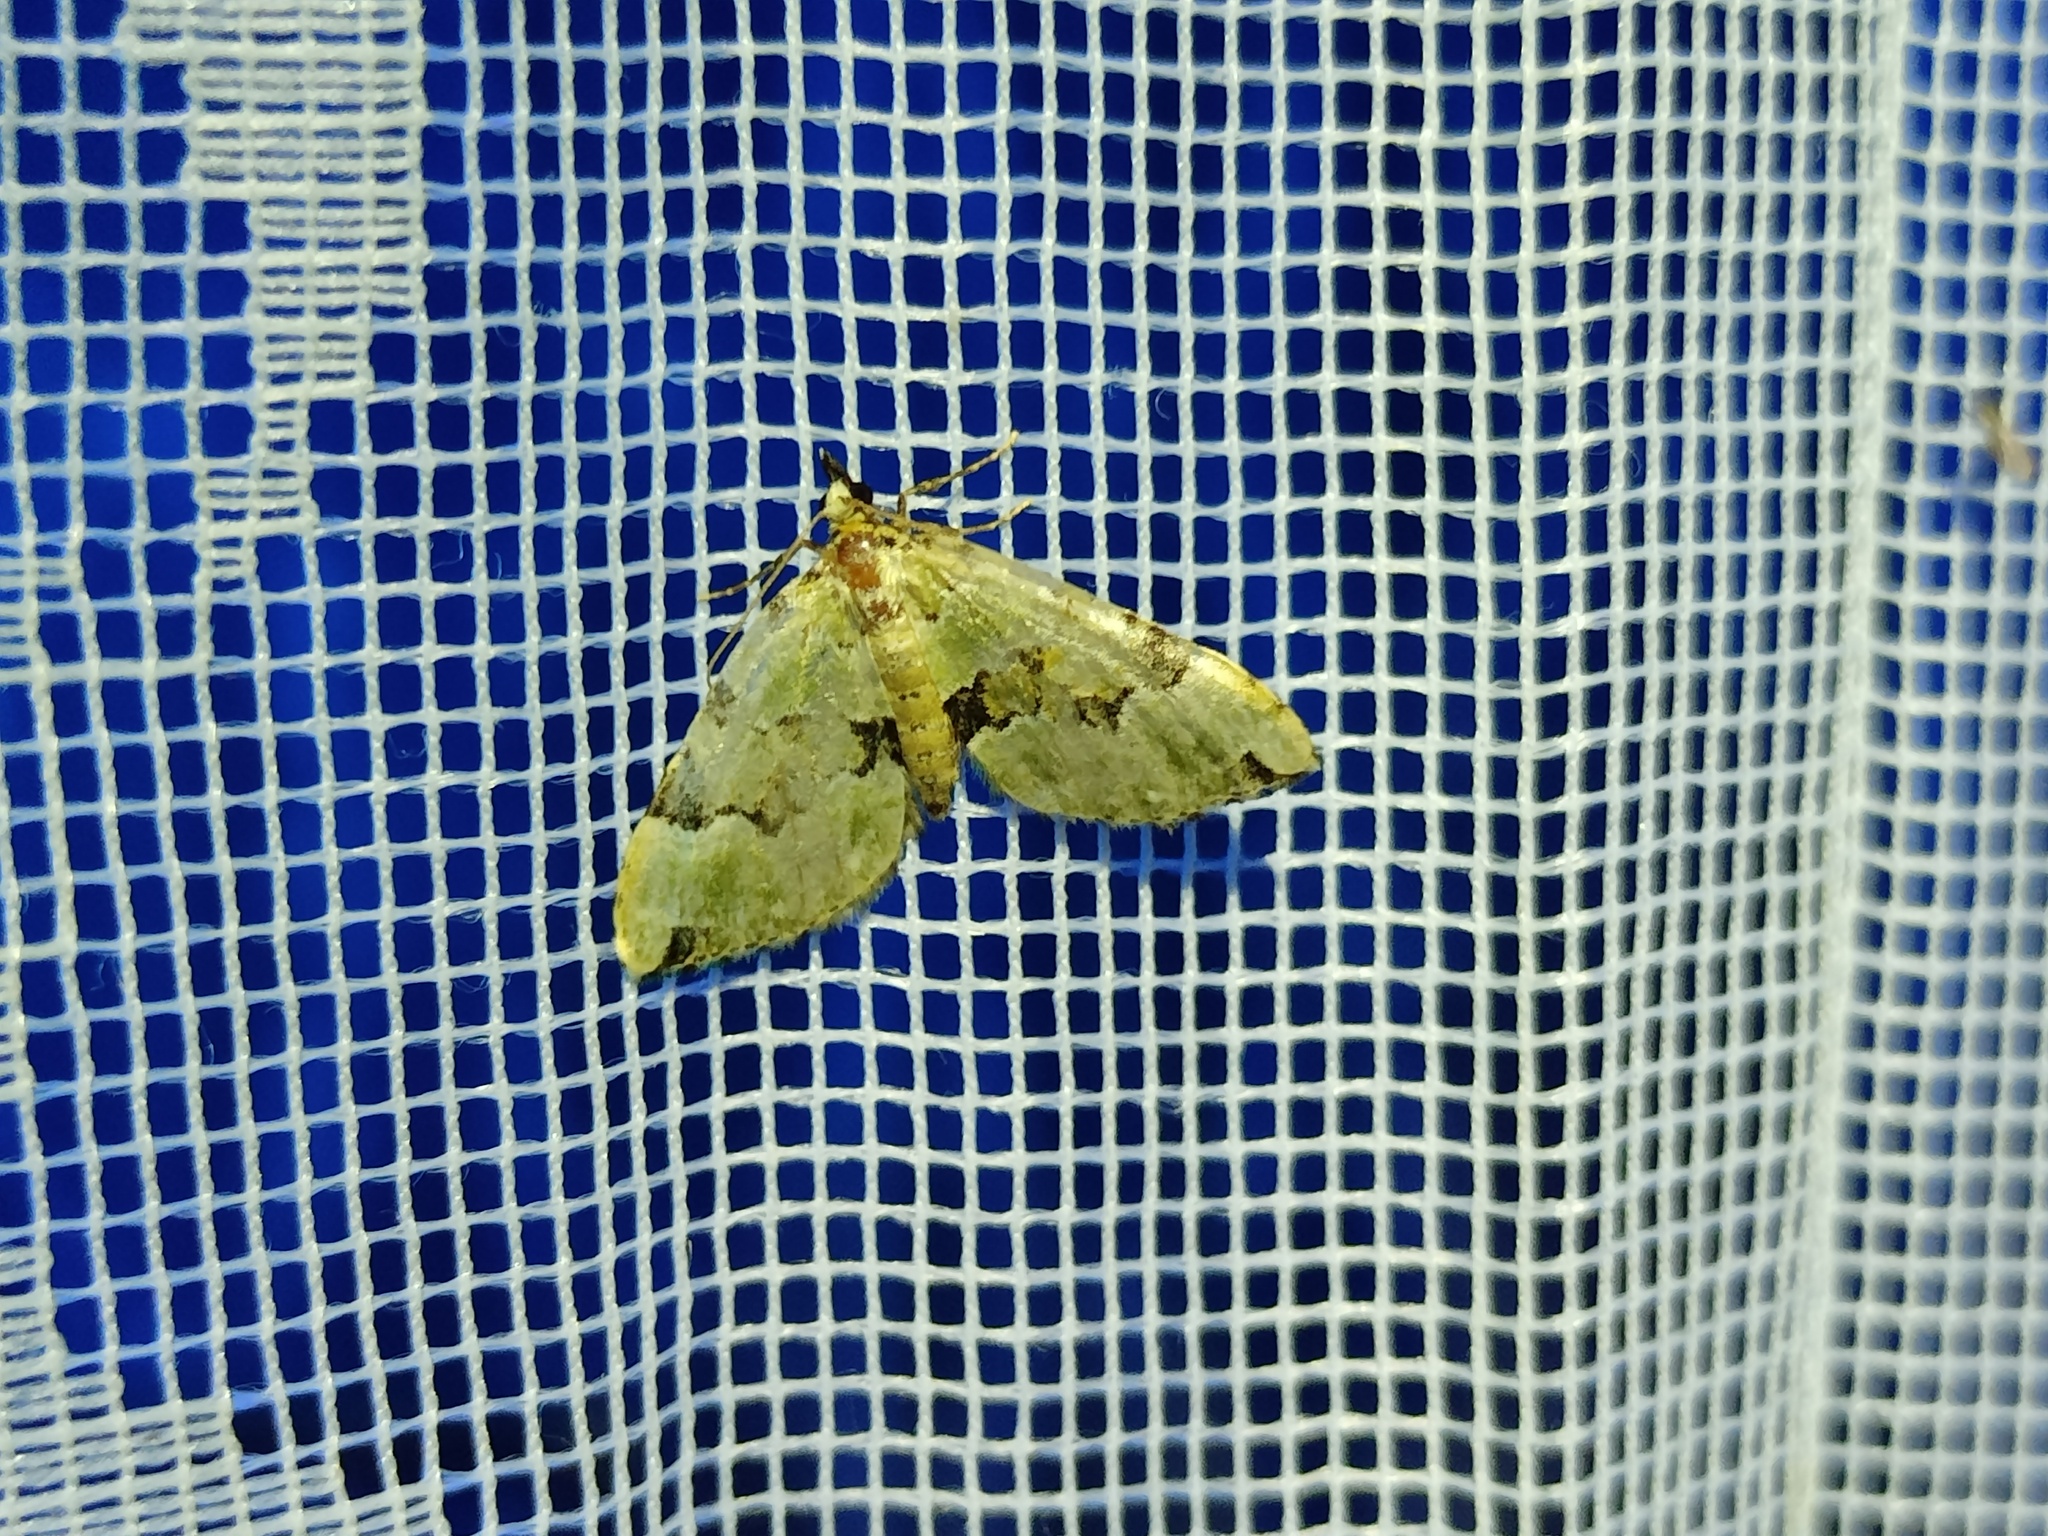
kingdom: Animalia
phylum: Arthropoda
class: Insecta
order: Lepidoptera
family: Geometridae
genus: Colostygia
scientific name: Colostygia pectinataria
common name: Green carpet
